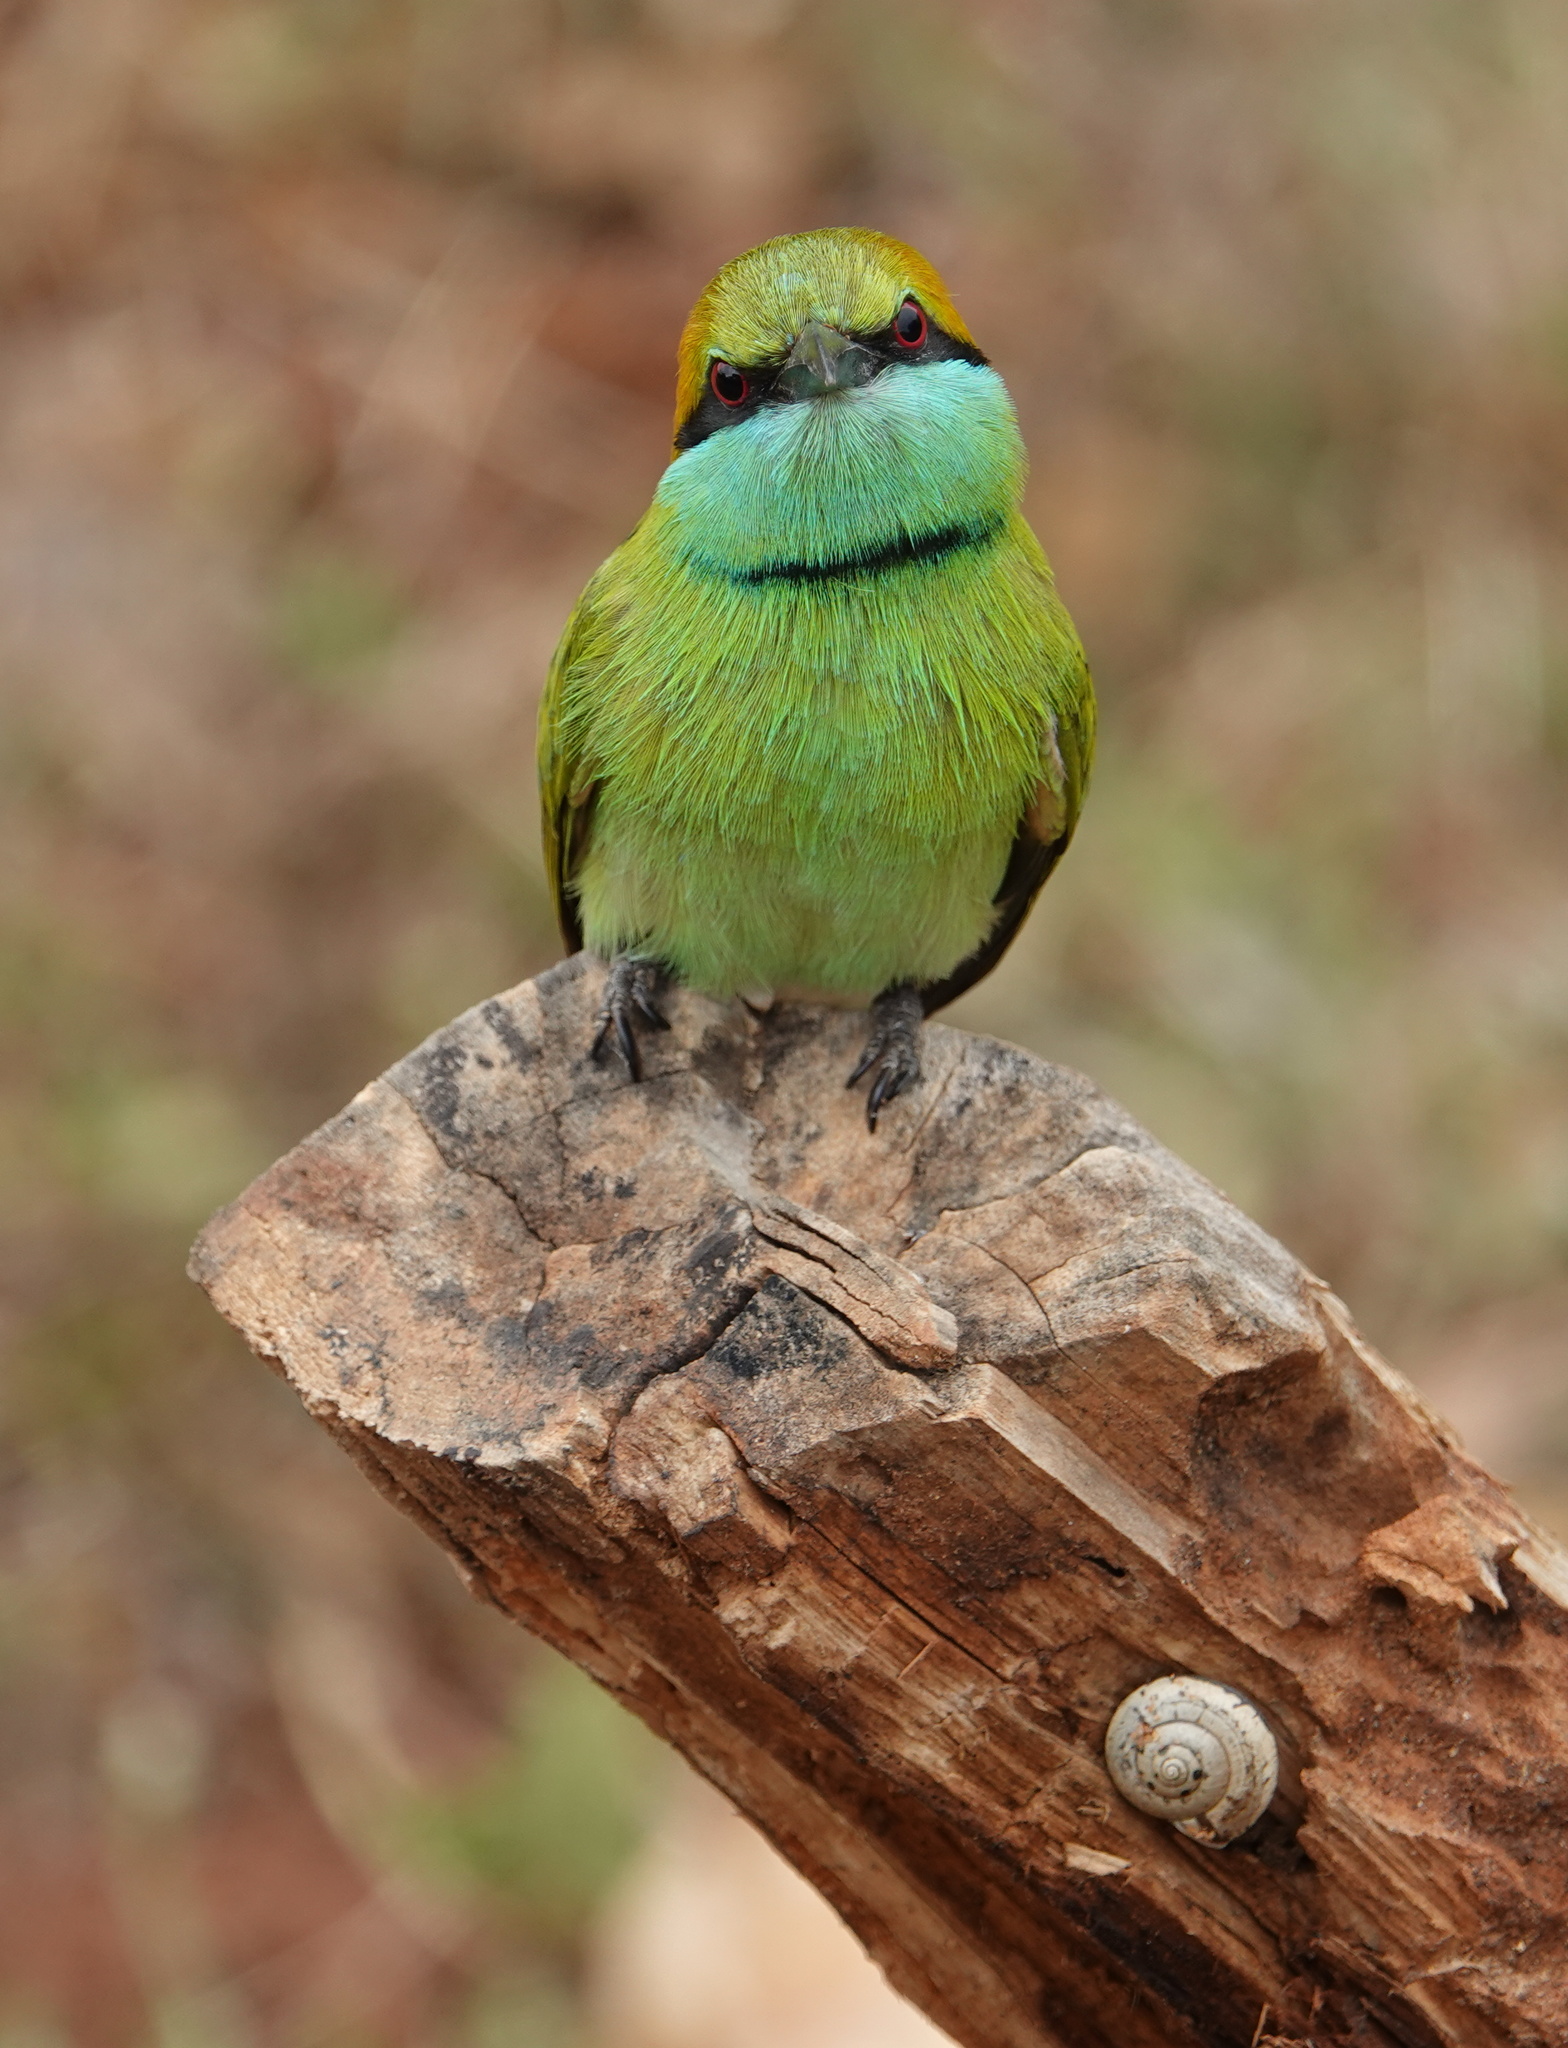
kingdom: Animalia
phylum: Chordata
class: Aves
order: Coraciiformes
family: Meropidae
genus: Merops
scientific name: Merops orientalis
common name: Green bee-eater
